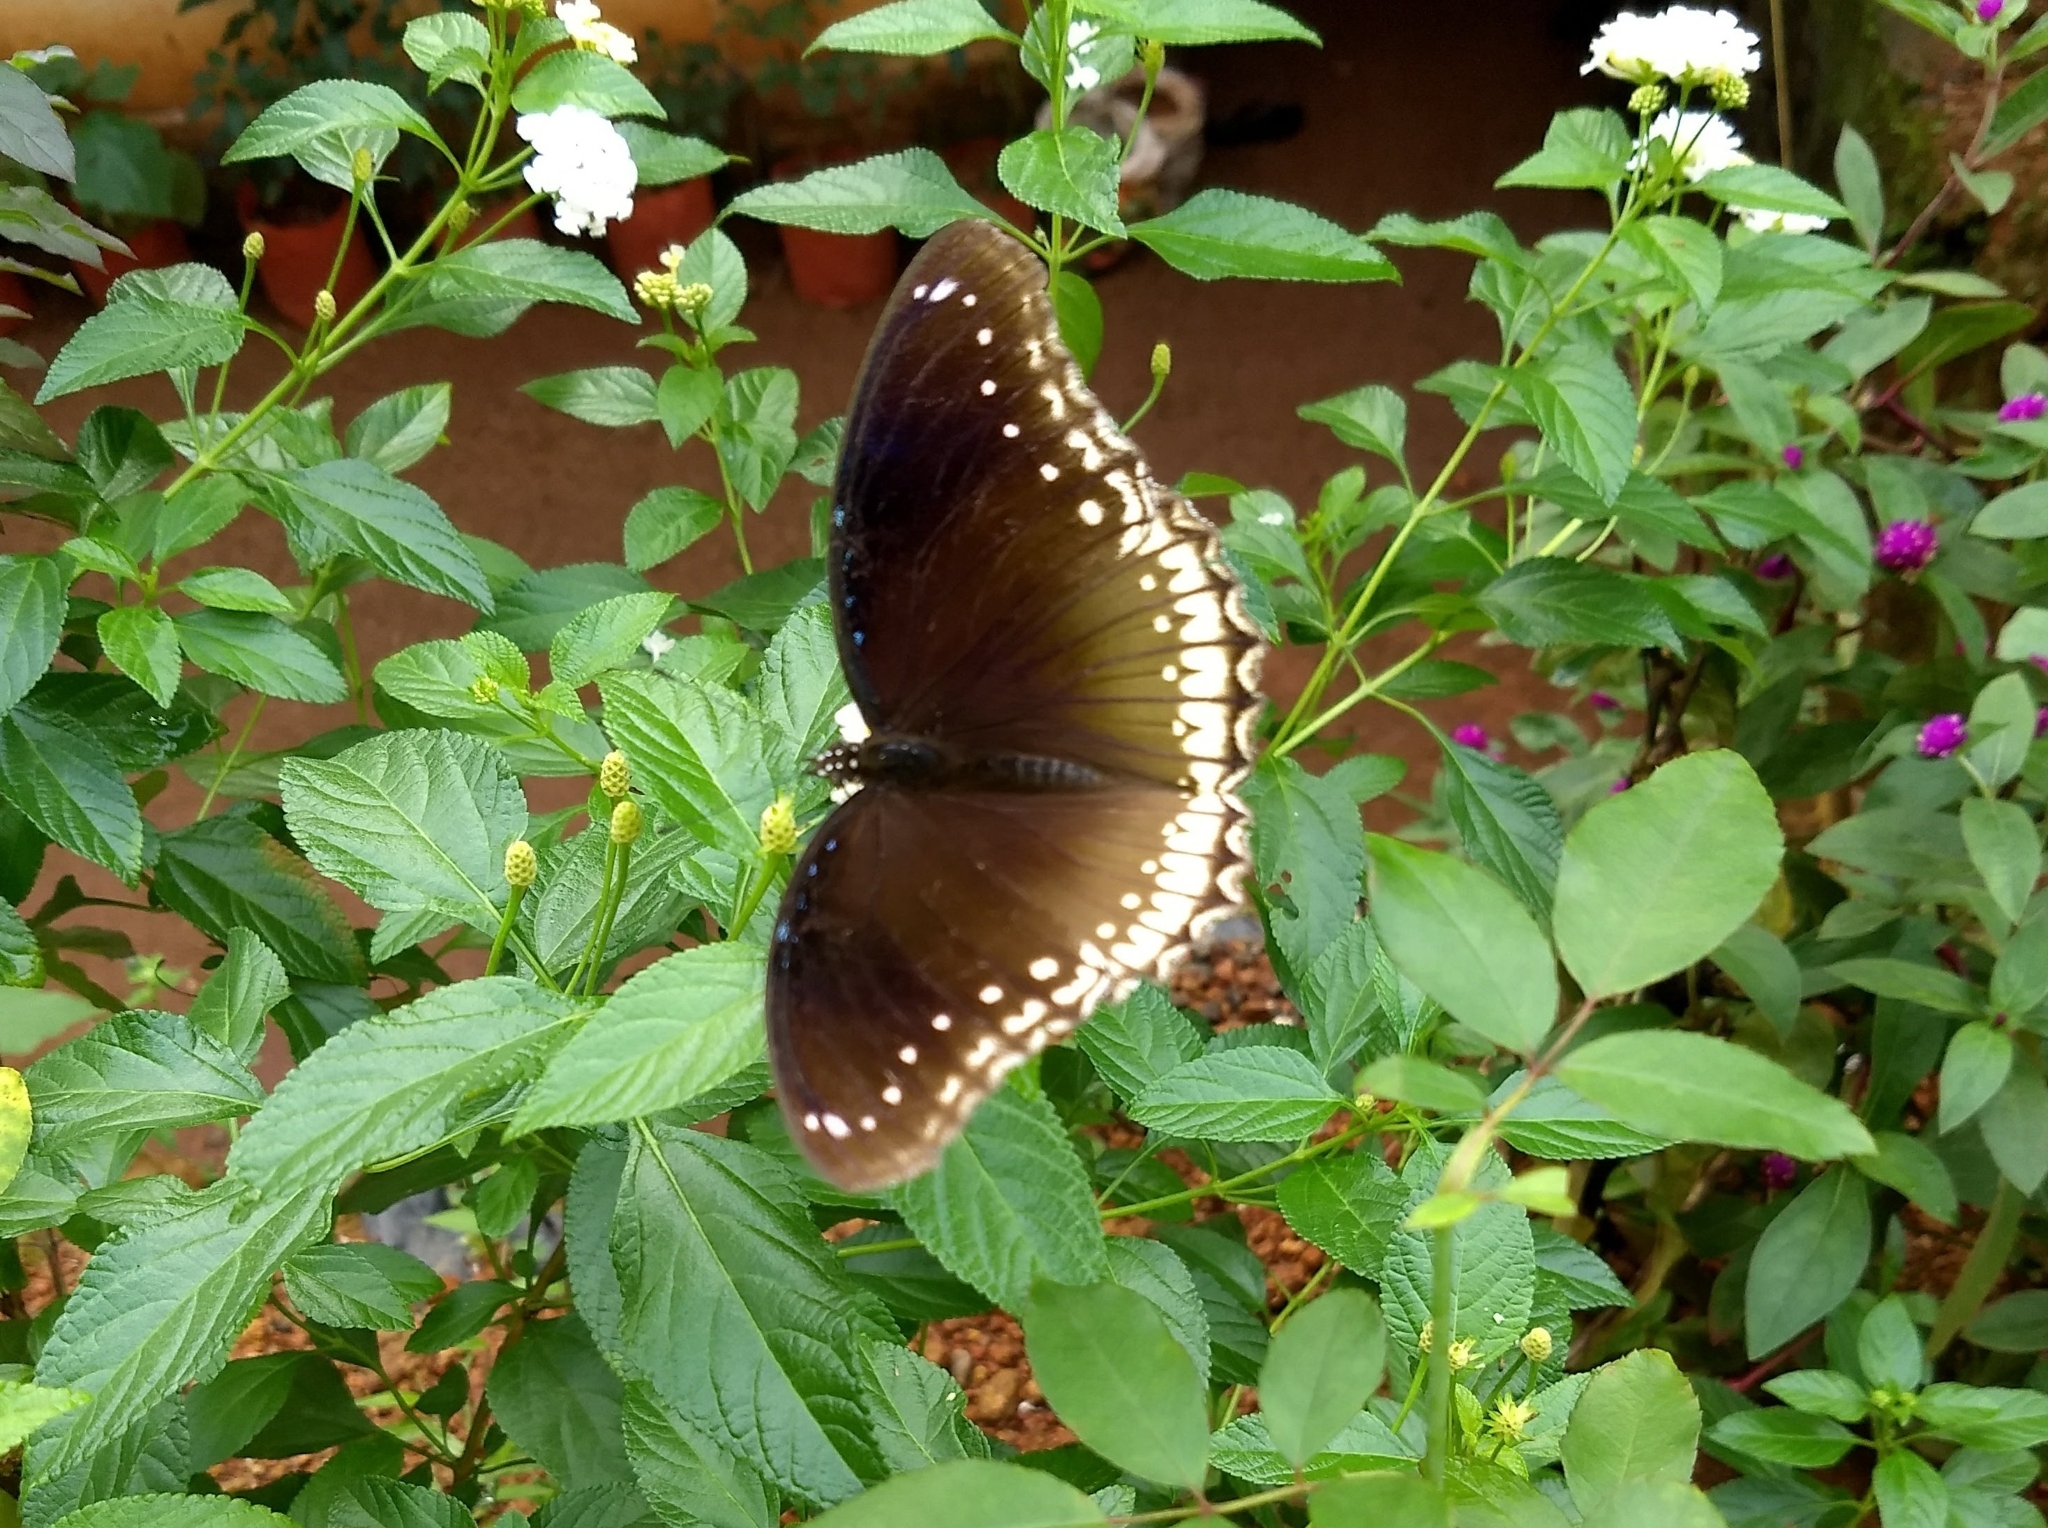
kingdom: Animalia
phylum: Arthropoda
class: Insecta
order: Lepidoptera
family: Nymphalidae
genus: Hypolimnas
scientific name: Hypolimnas bolina
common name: Great eggfly
